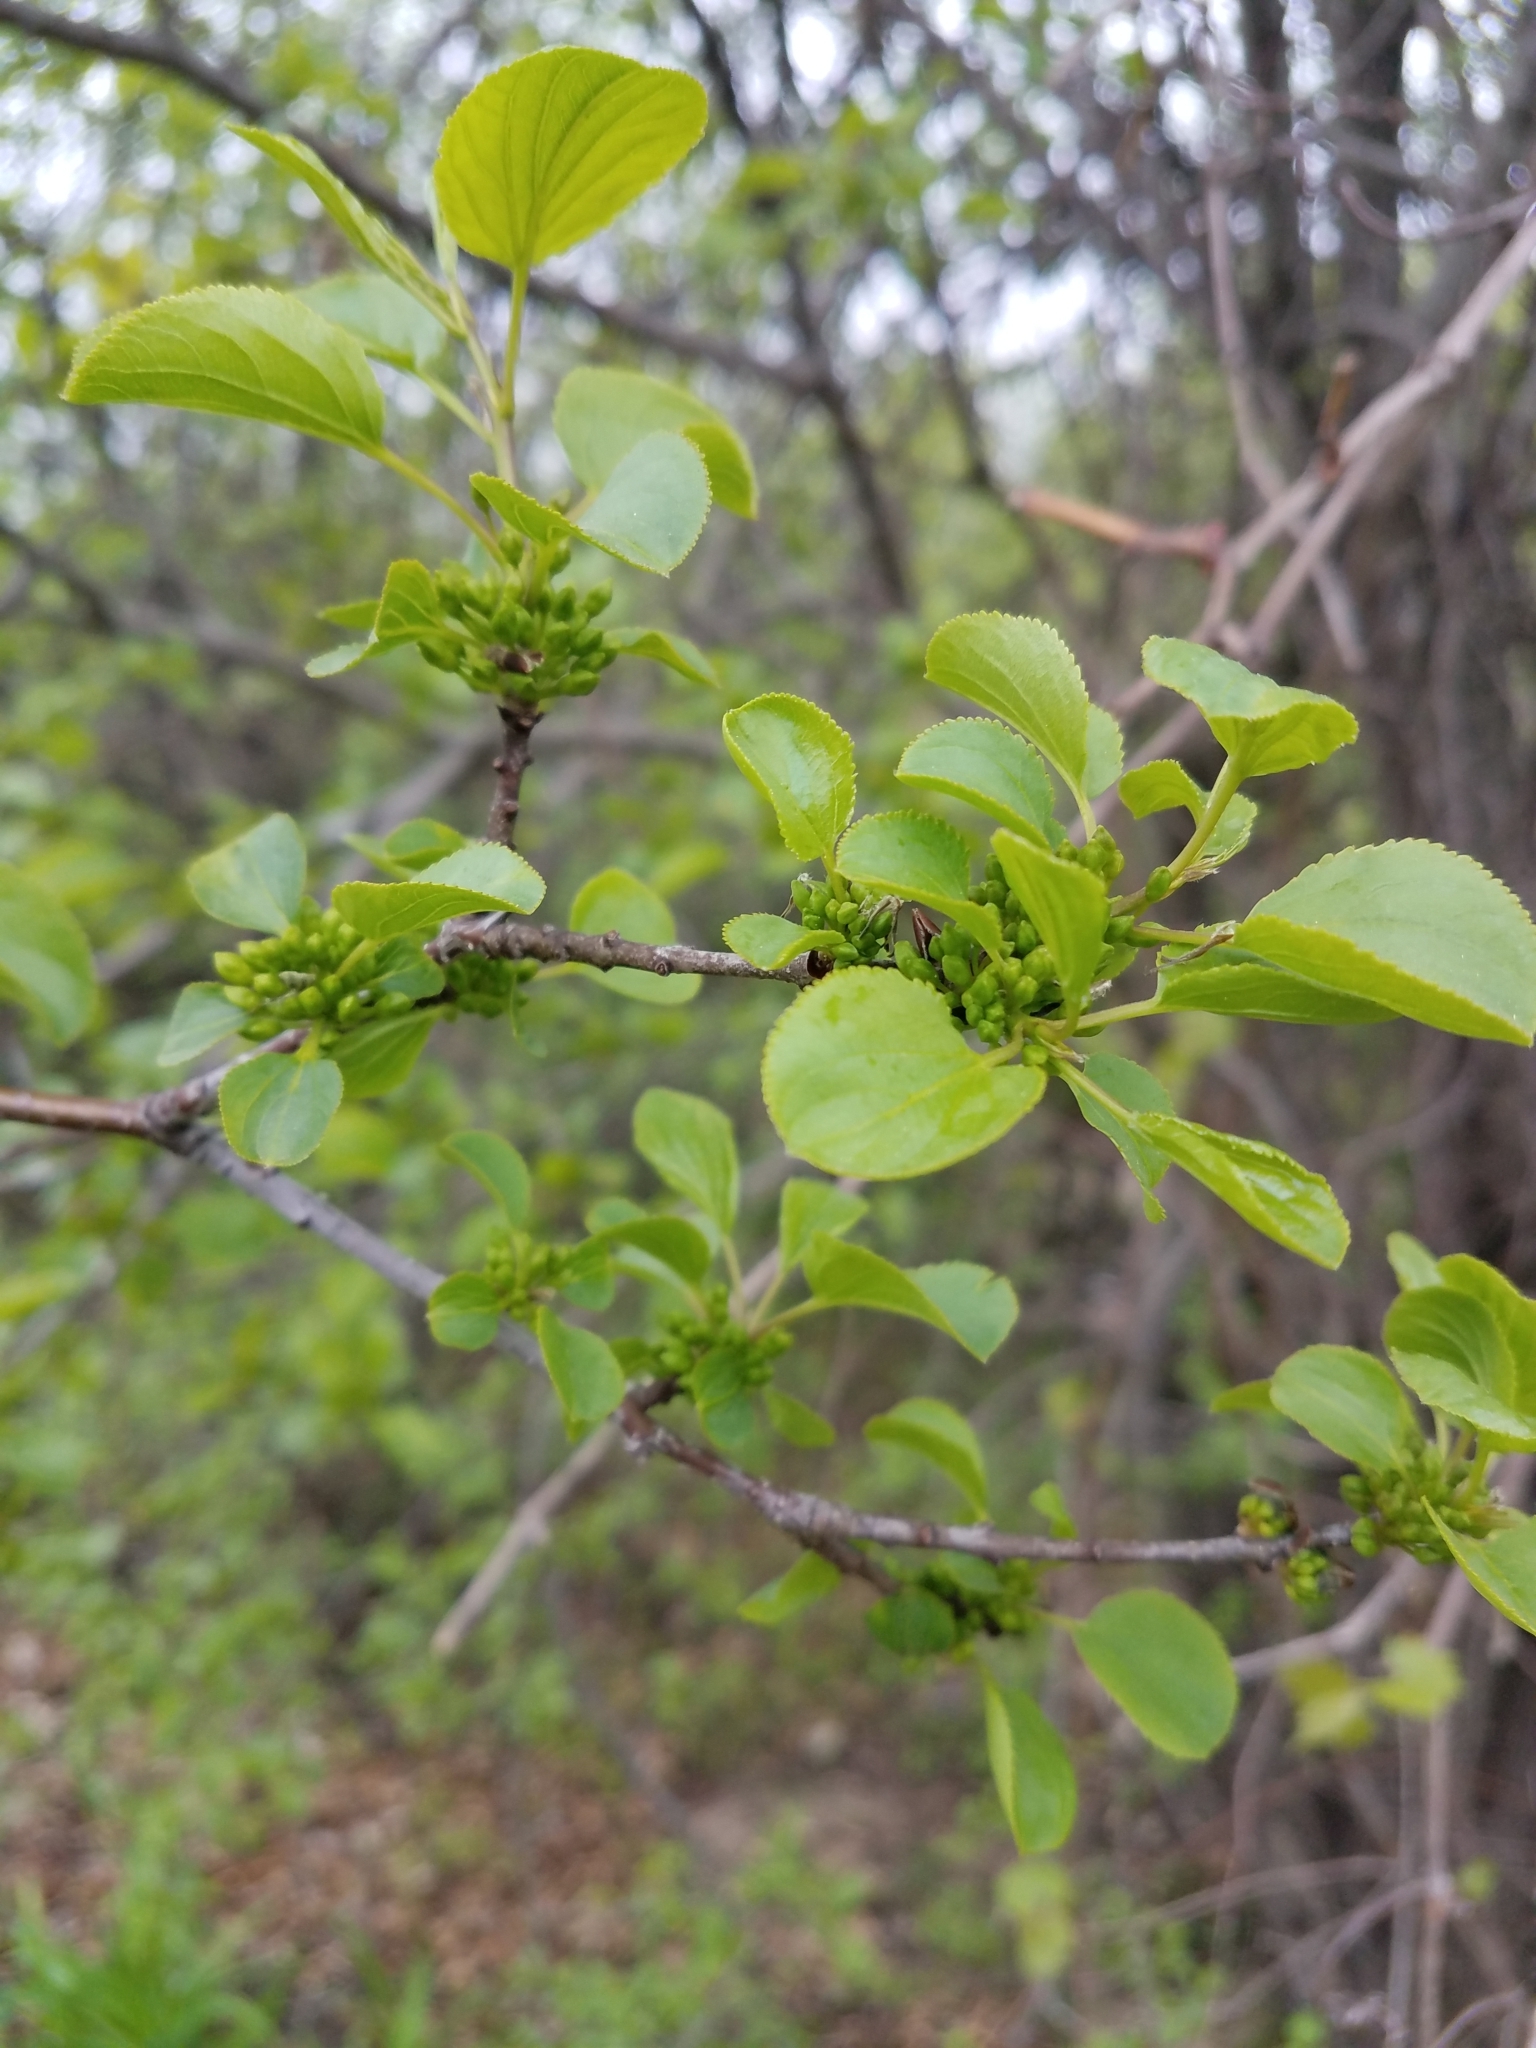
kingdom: Plantae
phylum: Tracheophyta
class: Magnoliopsida
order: Rosales
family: Rhamnaceae
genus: Rhamnus
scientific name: Rhamnus cathartica
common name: Common buckthorn
